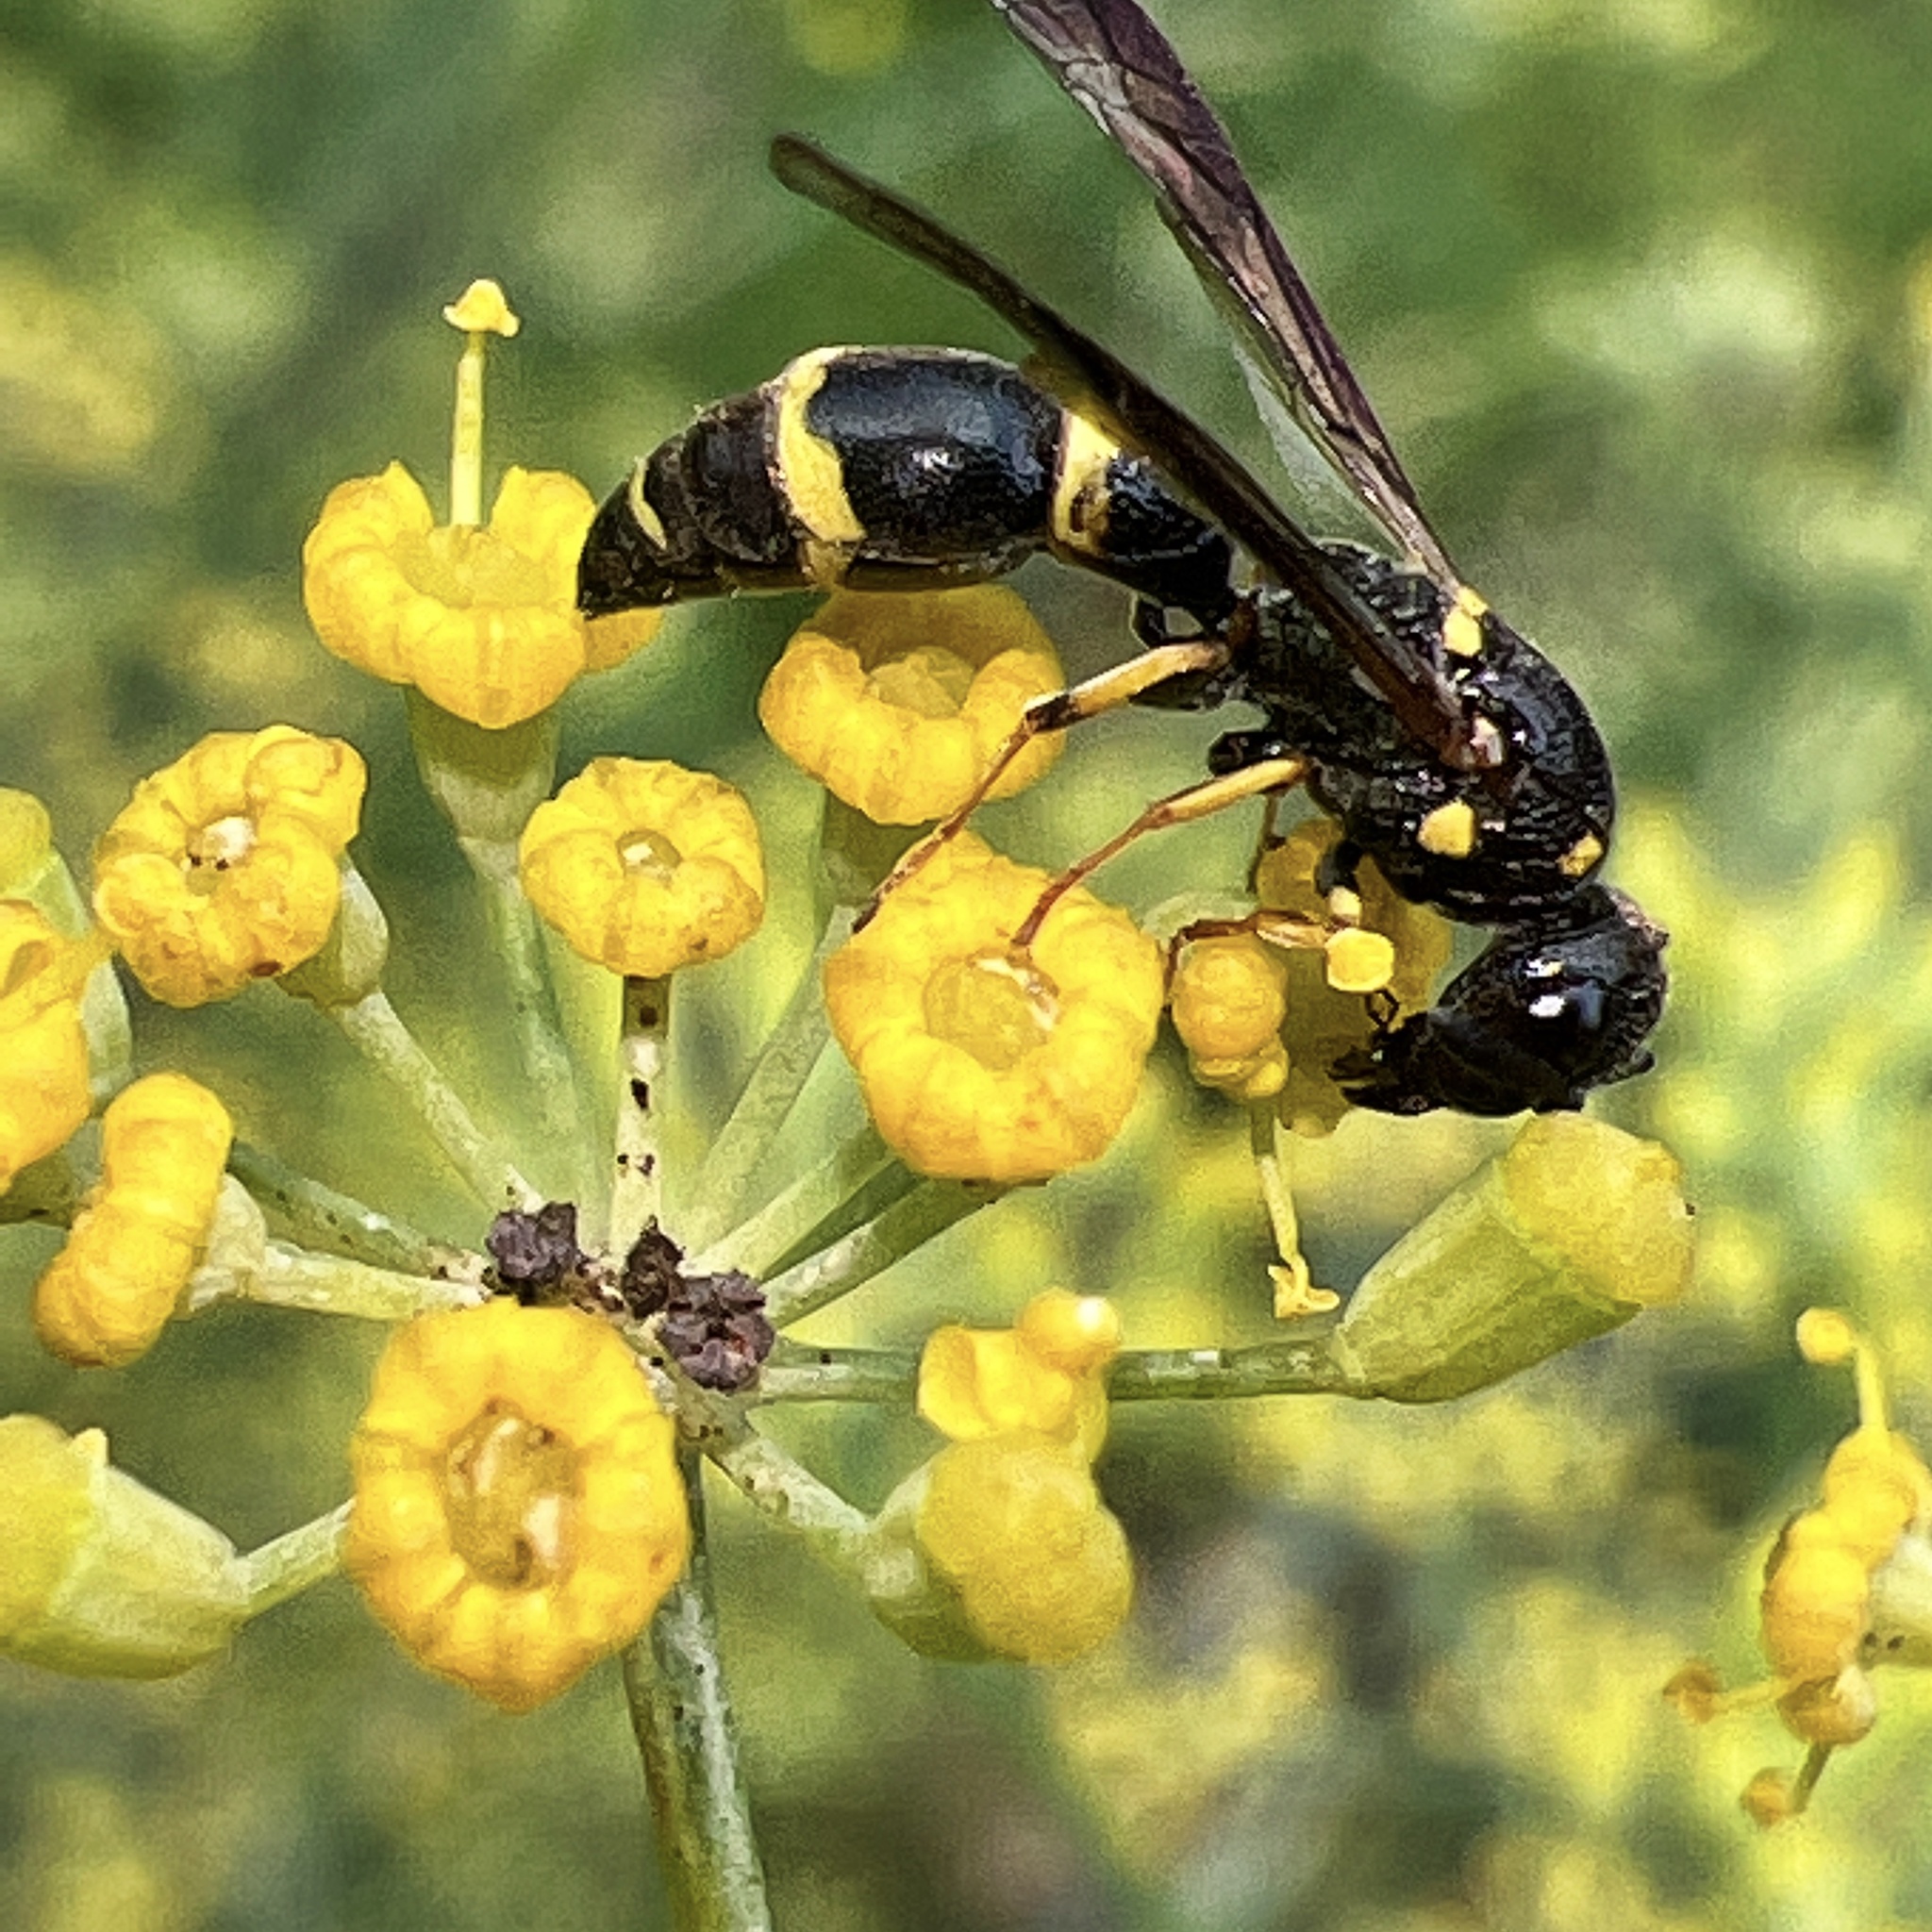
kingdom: Animalia
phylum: Arthropoda
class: Insecta
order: Hymenoptera
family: Eumenidae
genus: Symmorphus
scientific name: Symmorphus
